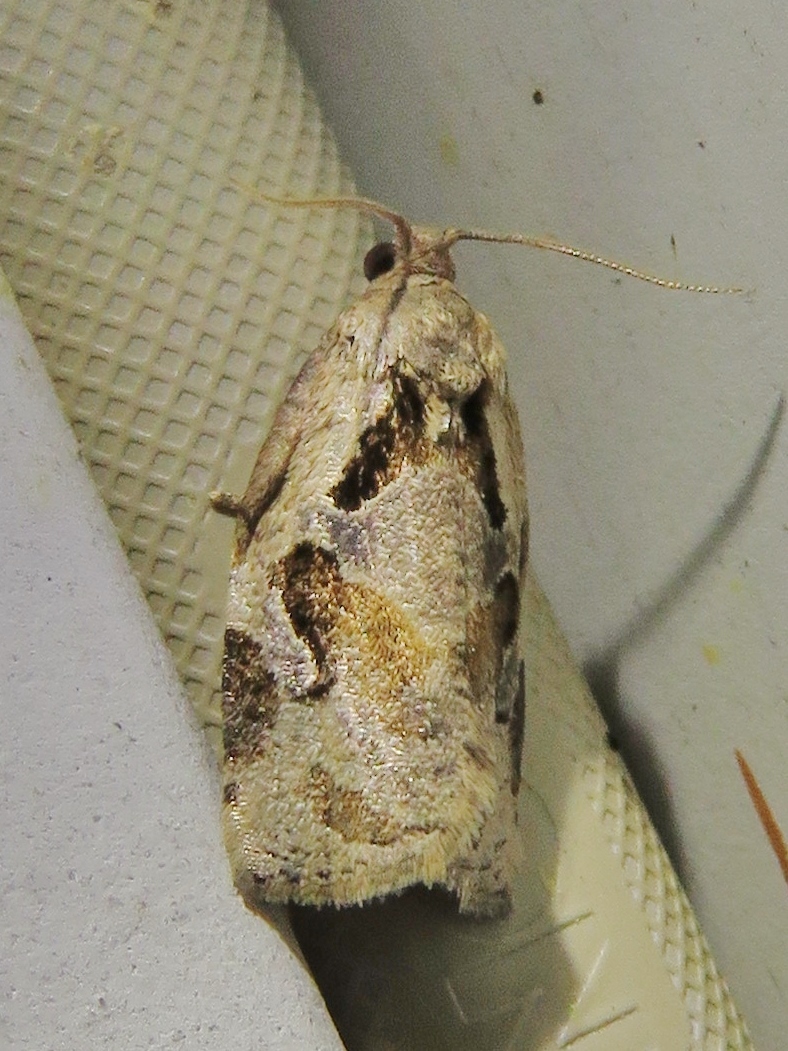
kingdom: Animalia
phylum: Arthropoda
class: Insecta
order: Lepidoptera
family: Tortricidae
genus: Archips
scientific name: Archips grisea
